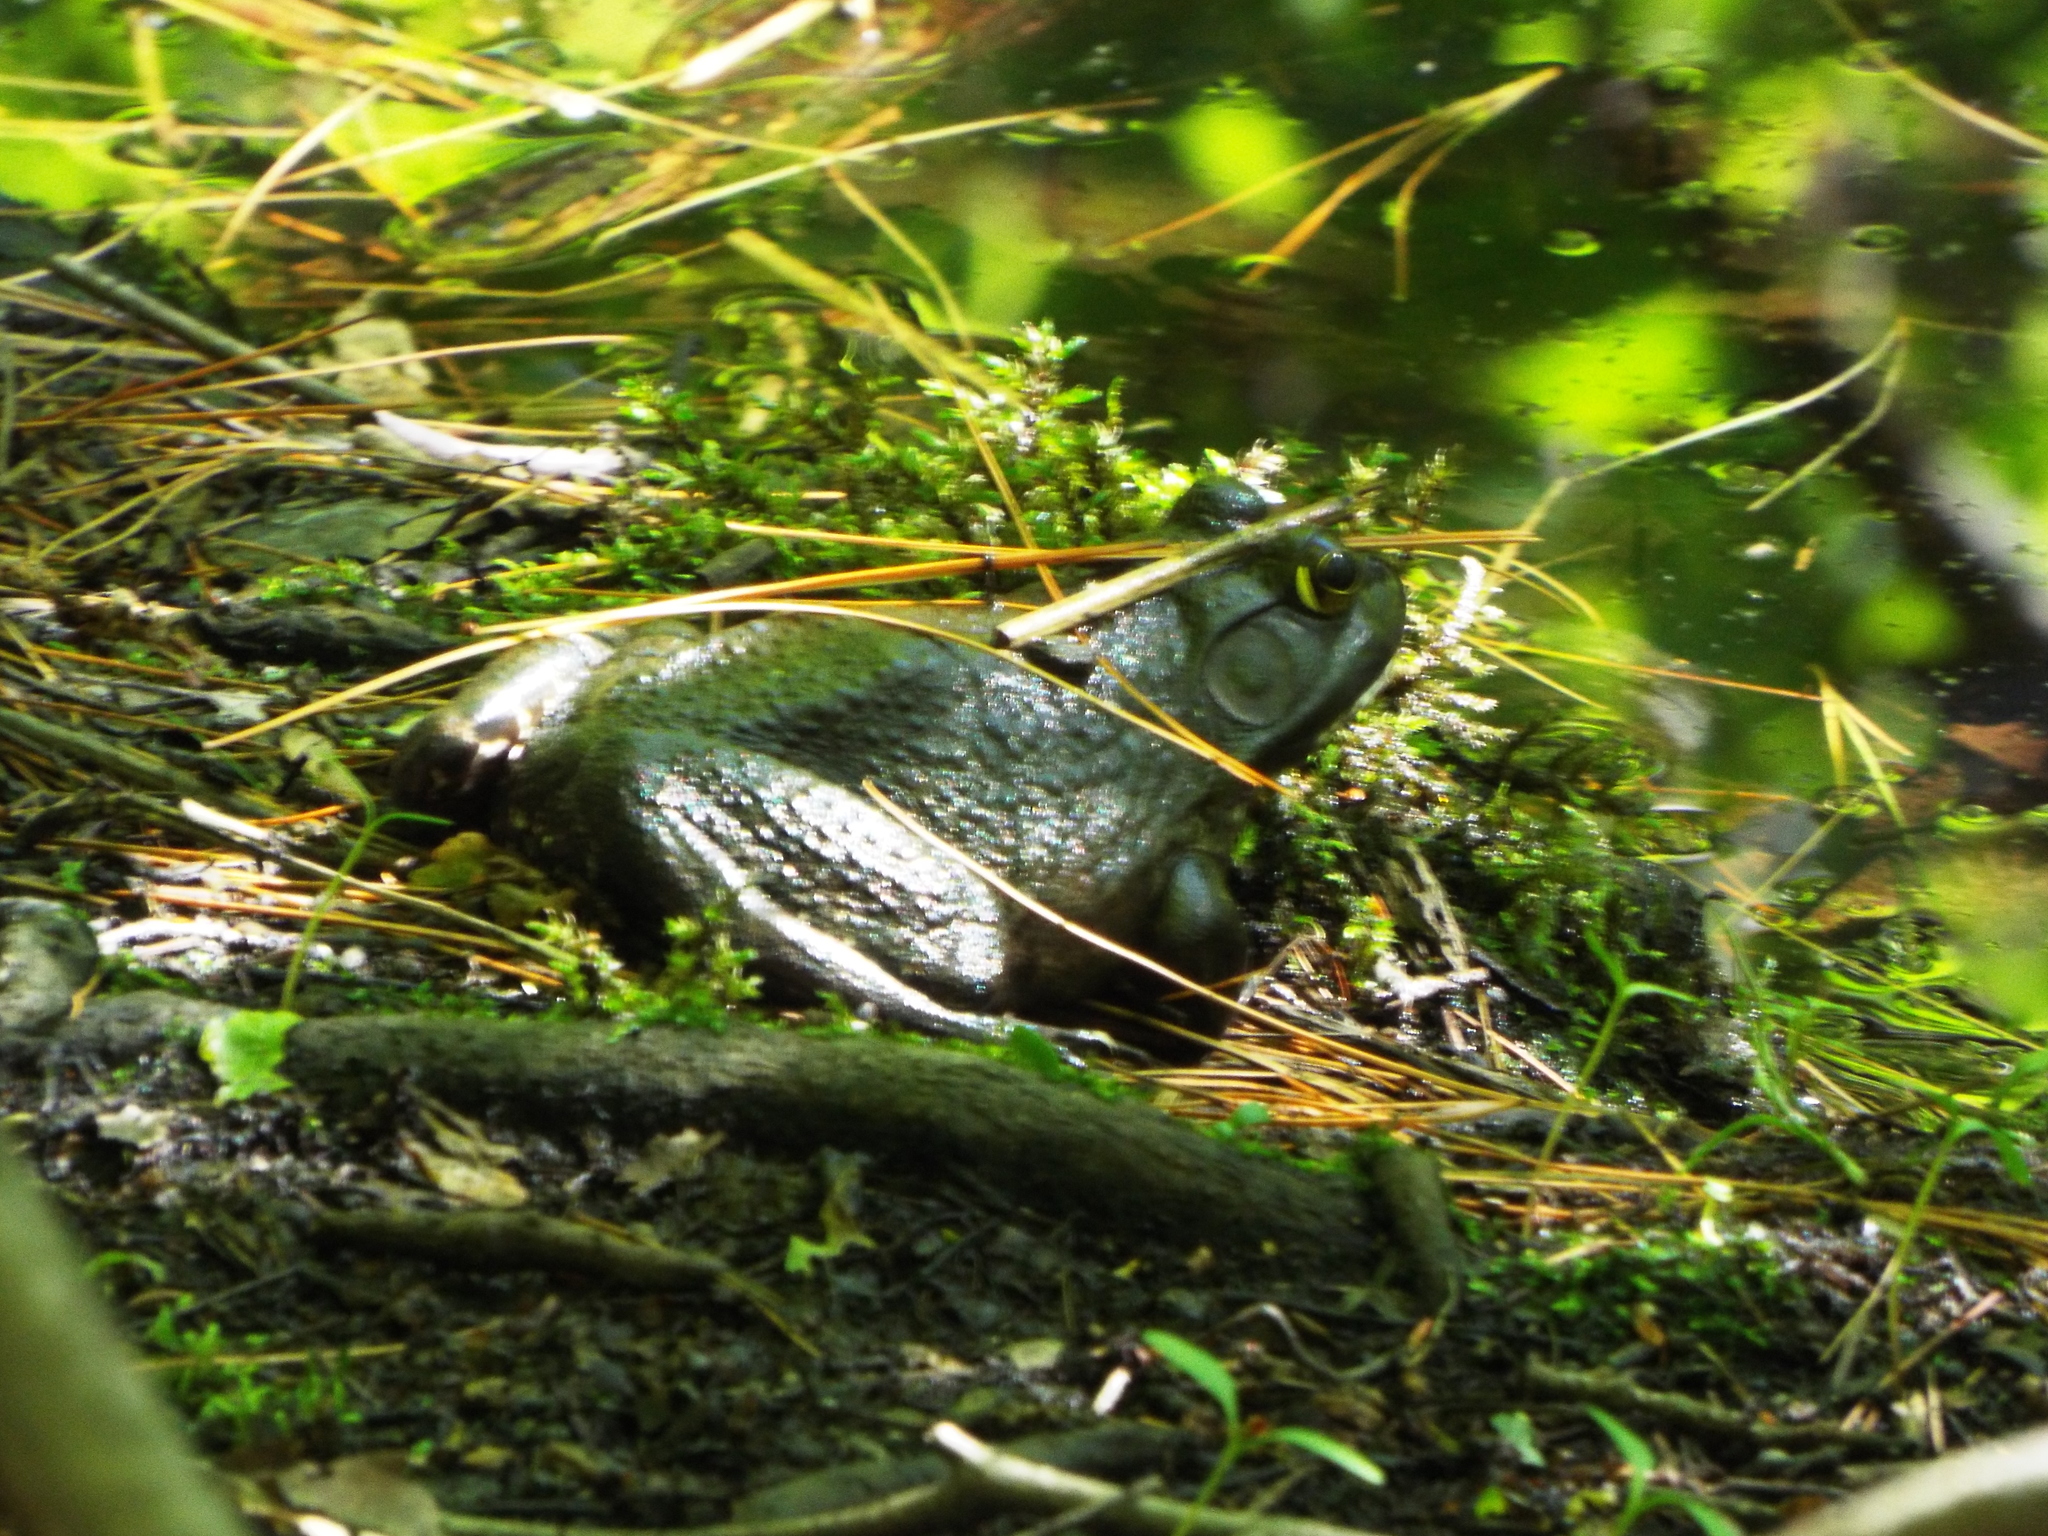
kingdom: Animalia
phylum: Chordata
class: Amphibia
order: Anura
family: Ranidae
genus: Lithobates
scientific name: Lithobates catesbeianus
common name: American bullfrog
